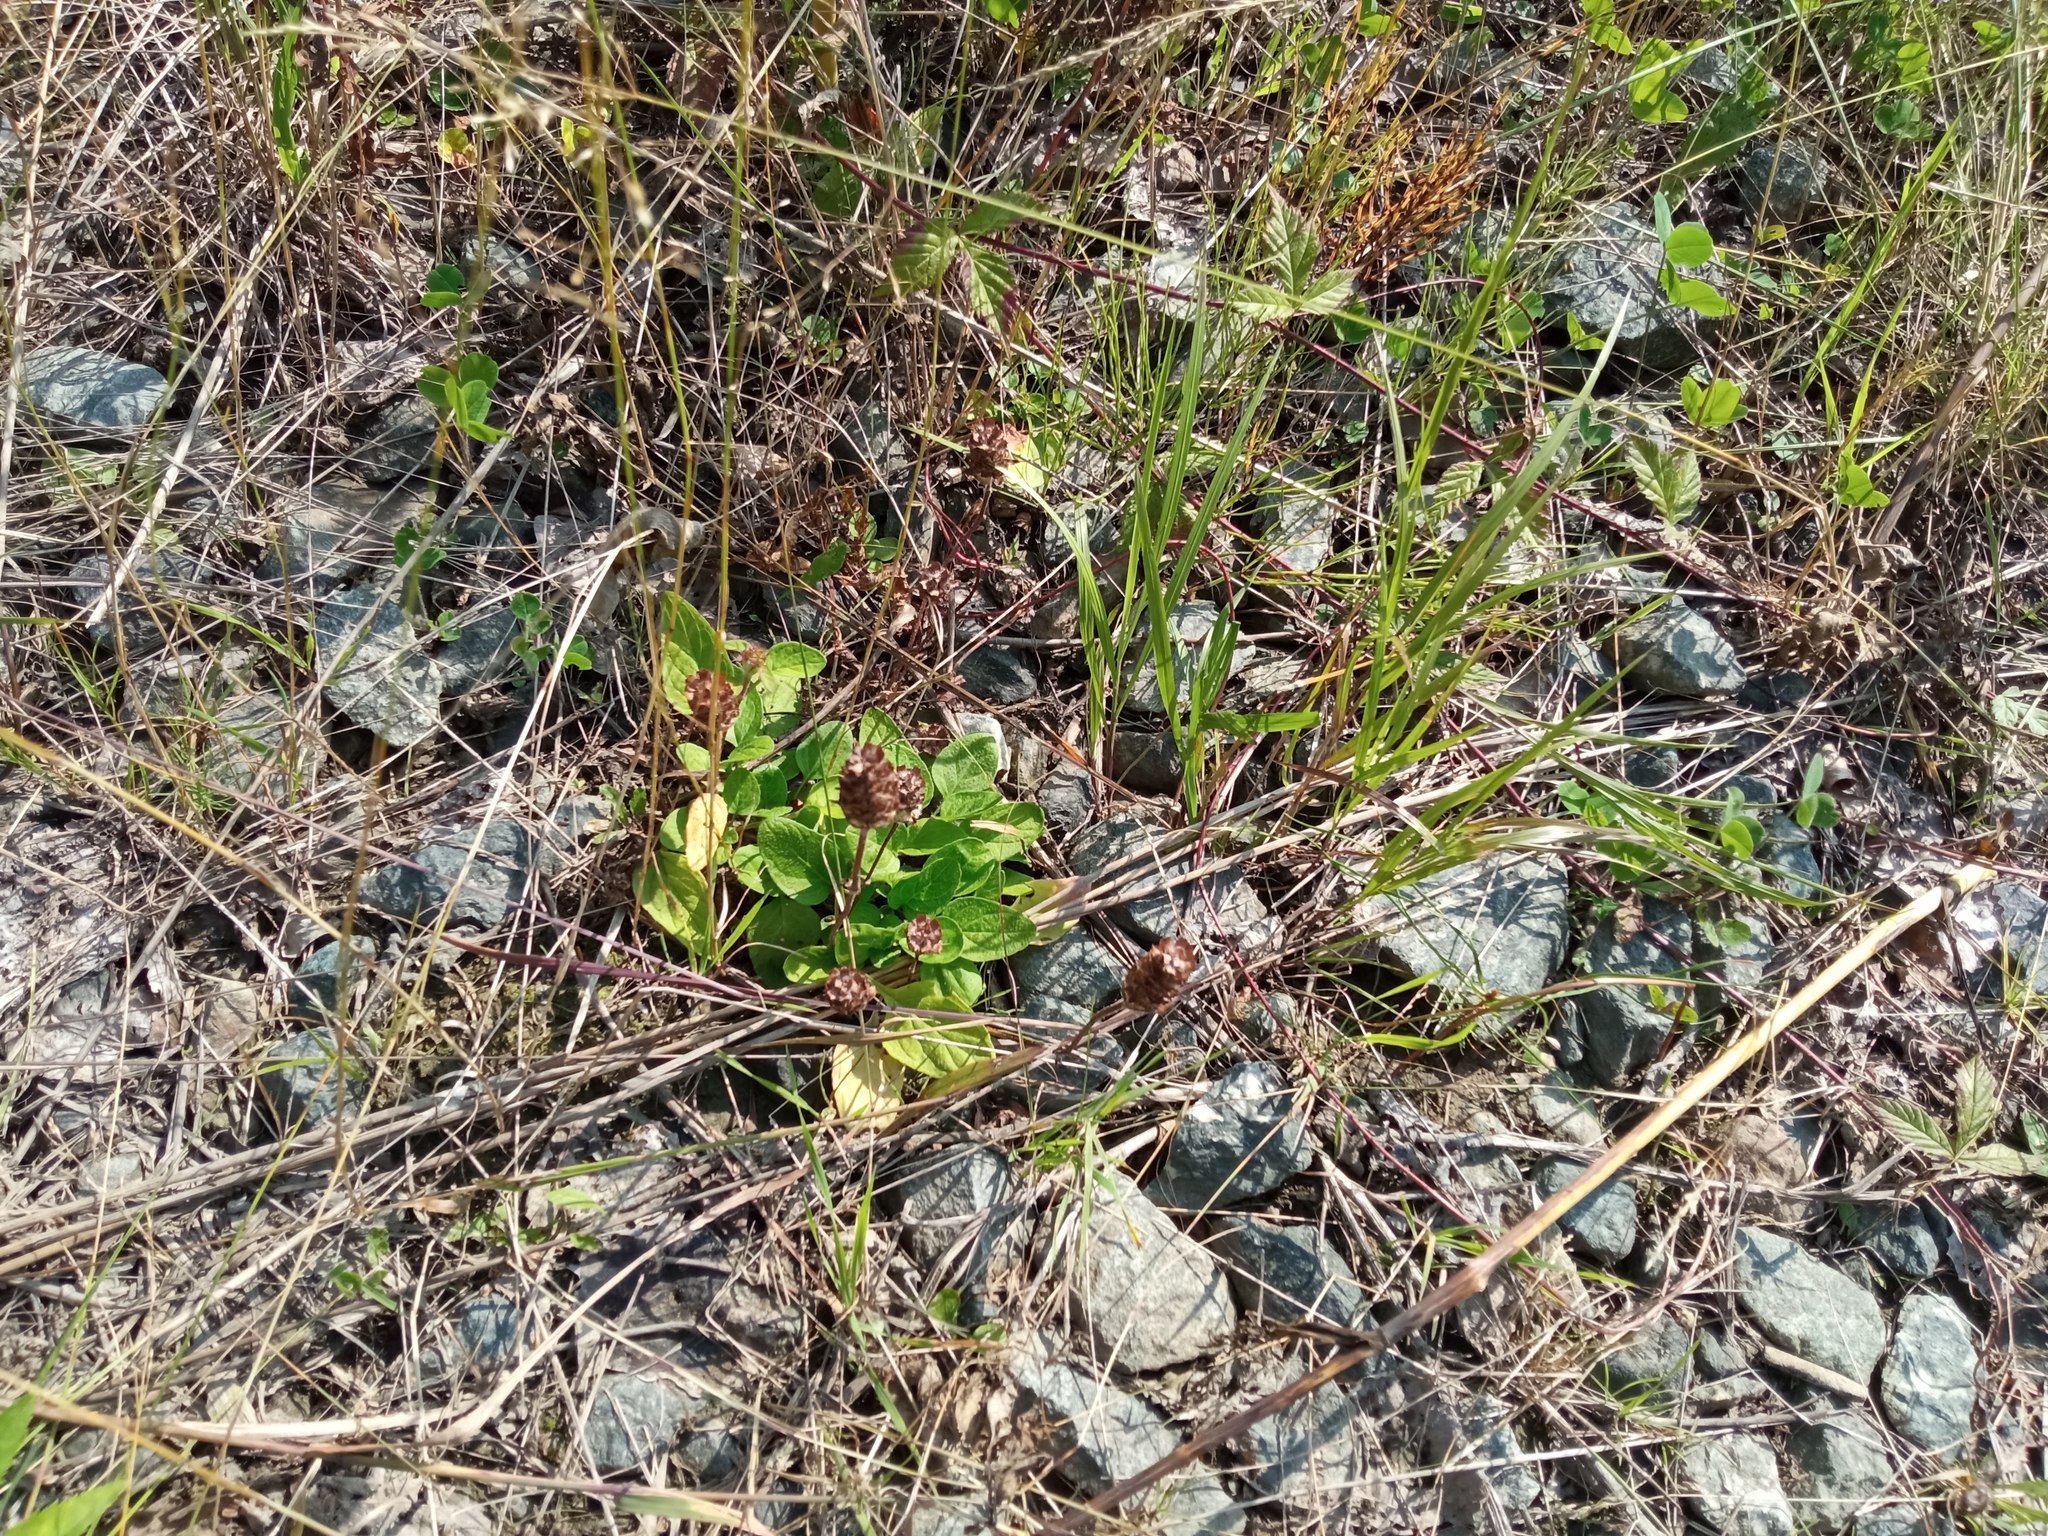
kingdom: Plantae
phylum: Tracheophyta
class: Magnoliopsida
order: Lamiales
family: Lamiaceae
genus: Prunella
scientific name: Prunella vulgaris
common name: Heal-all
